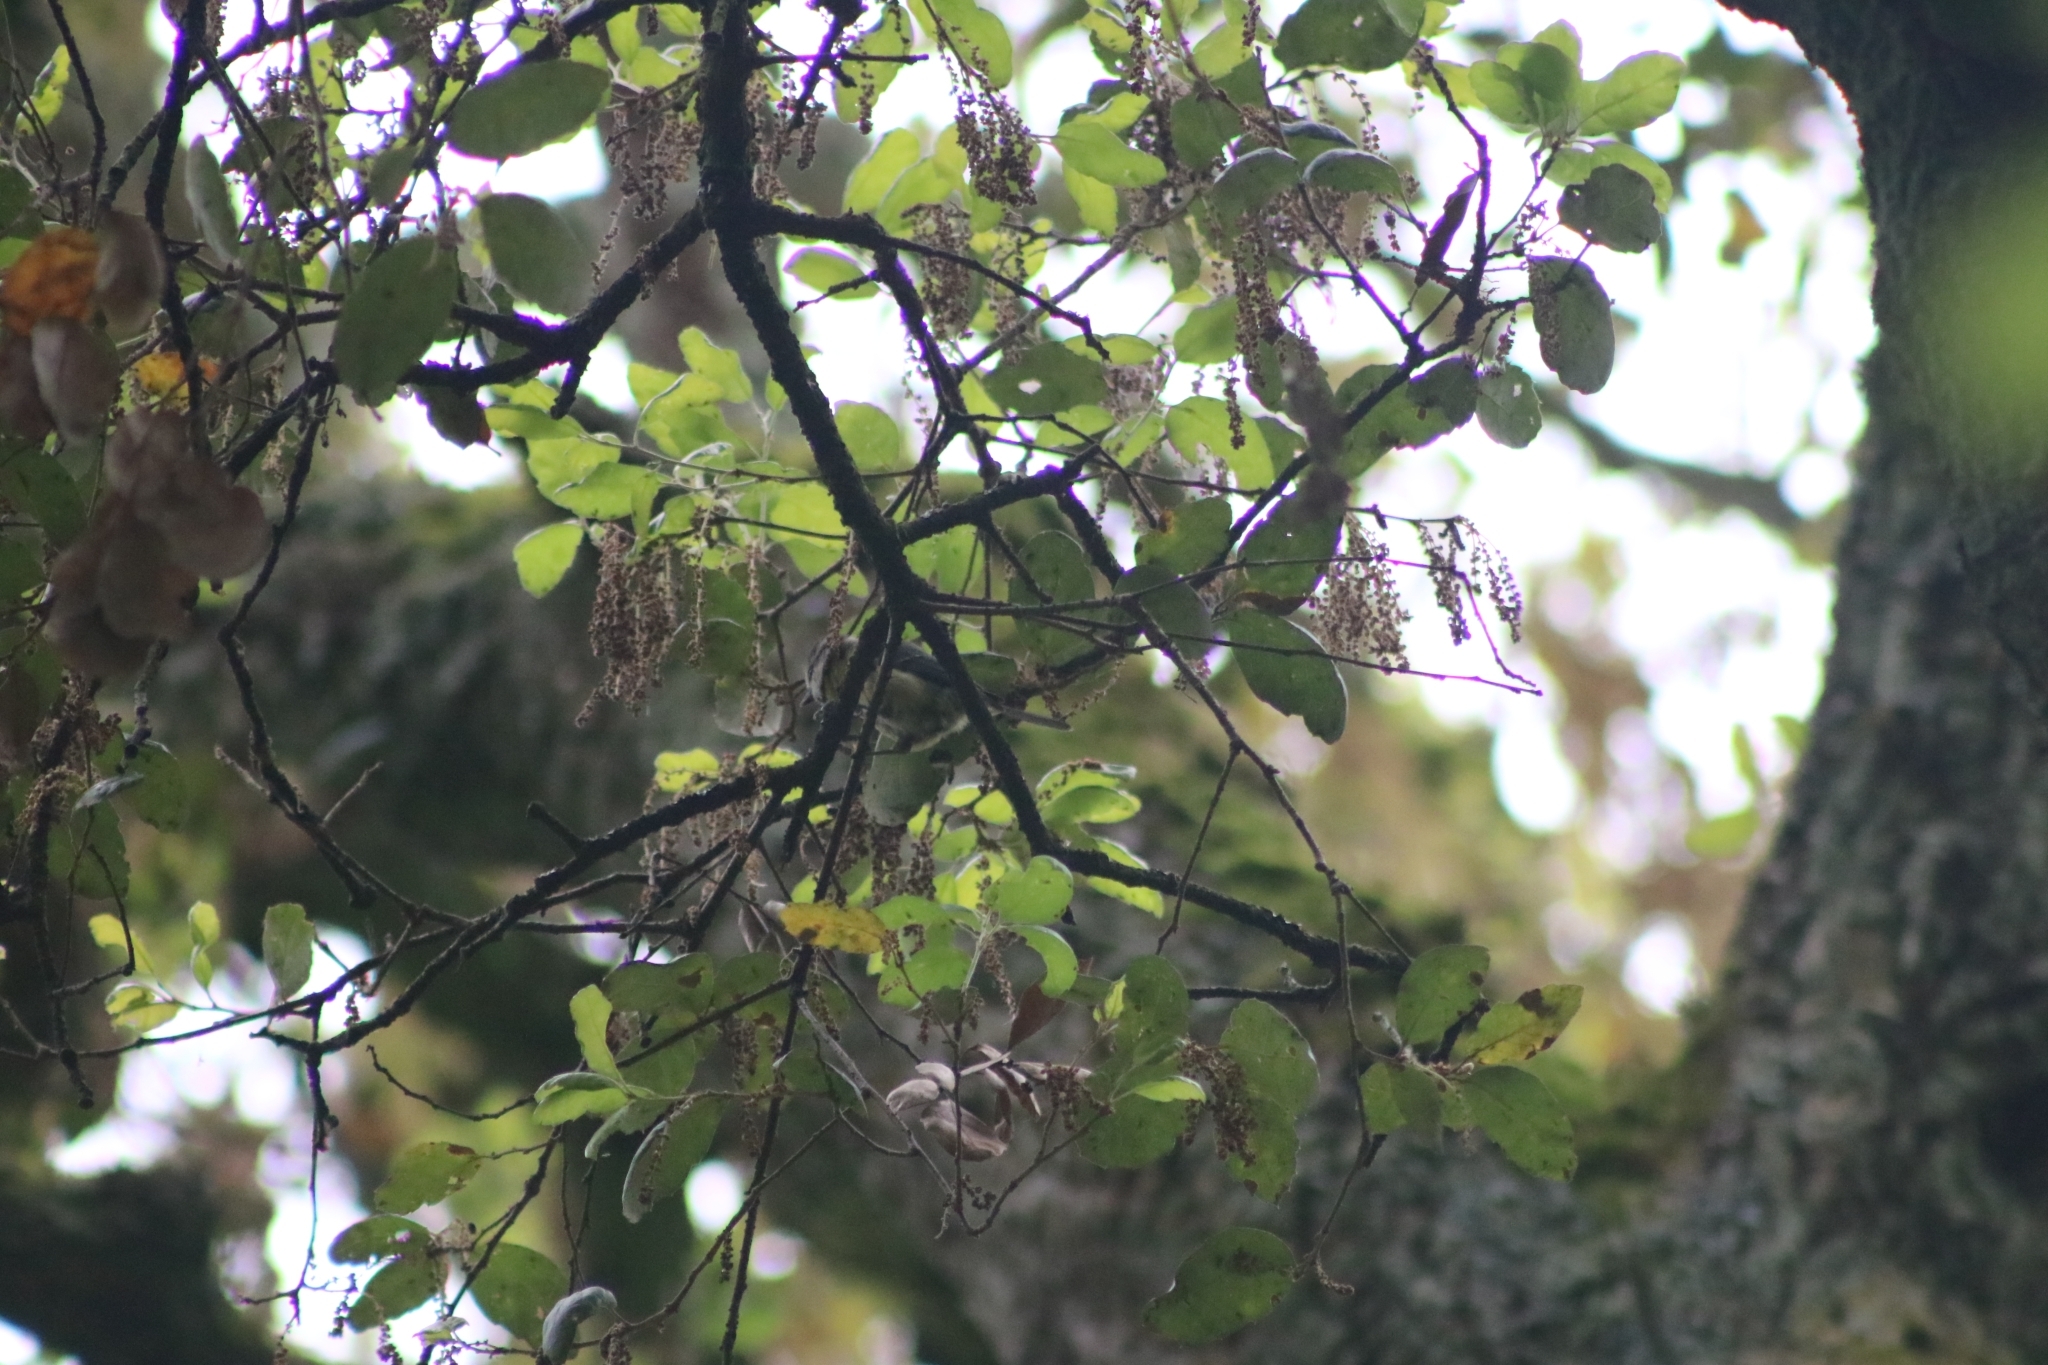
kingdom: Animalia
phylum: Chordata
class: Aves
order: Passeriformes
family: Paridae
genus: Cyanistes
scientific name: Cyanistes caeruleus
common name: Eurasian blue tit
